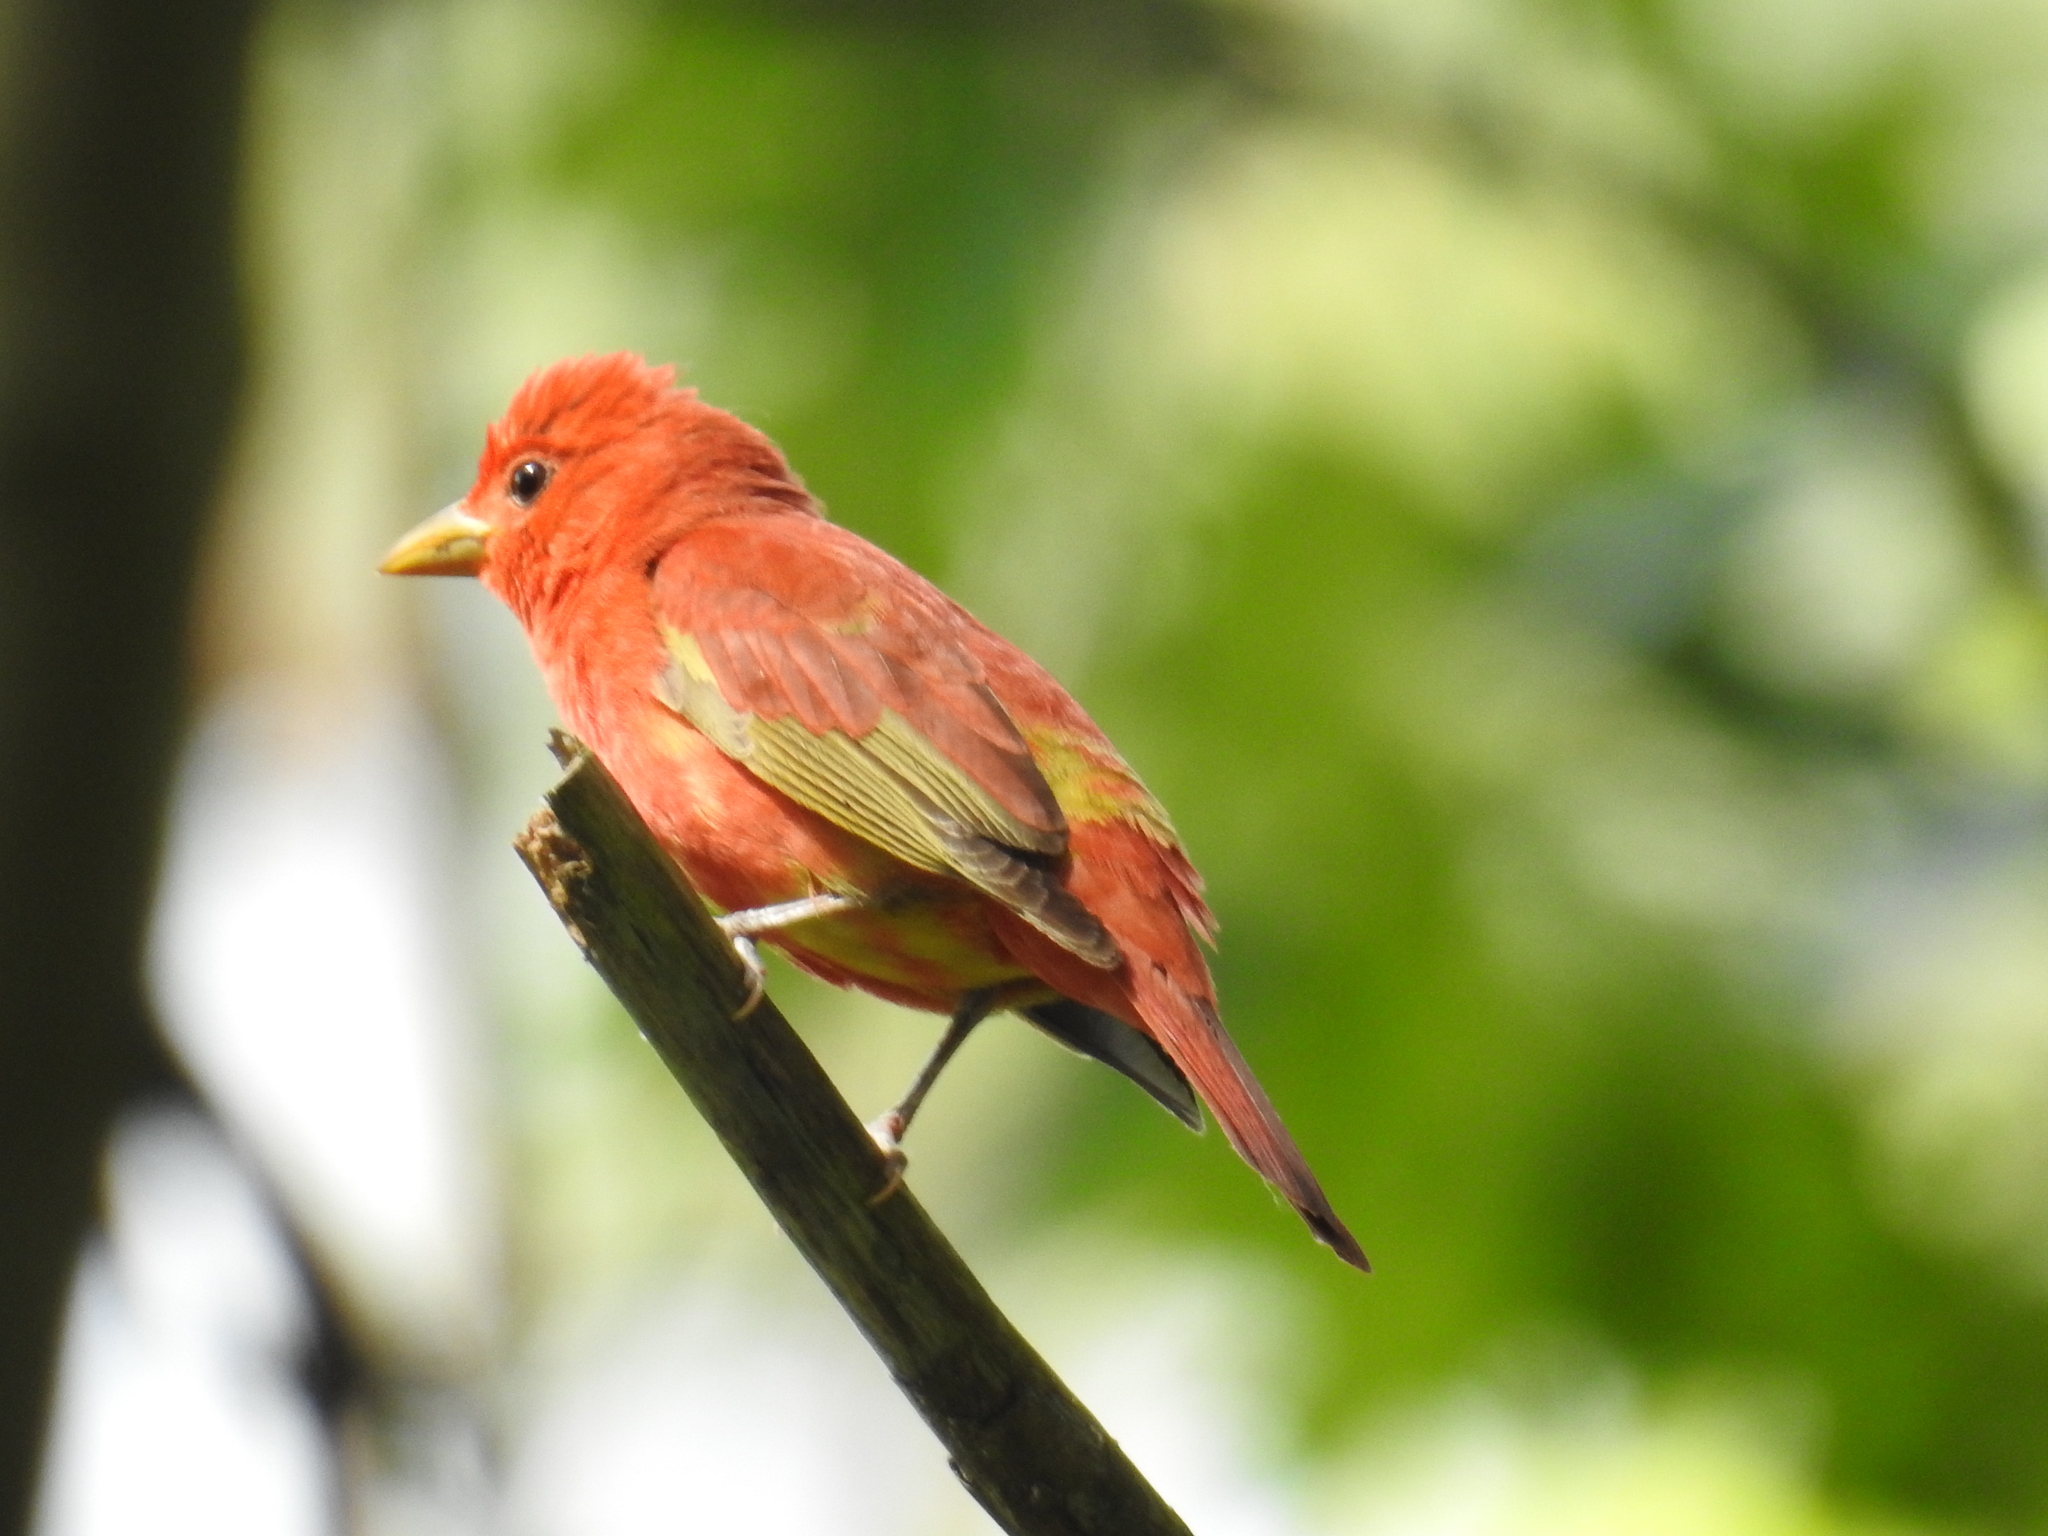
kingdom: Animalia
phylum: Chordata
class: Aves
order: Passeriformes
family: Cardinalidae
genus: Piranga
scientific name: Piranga rubra
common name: Summer tanager
